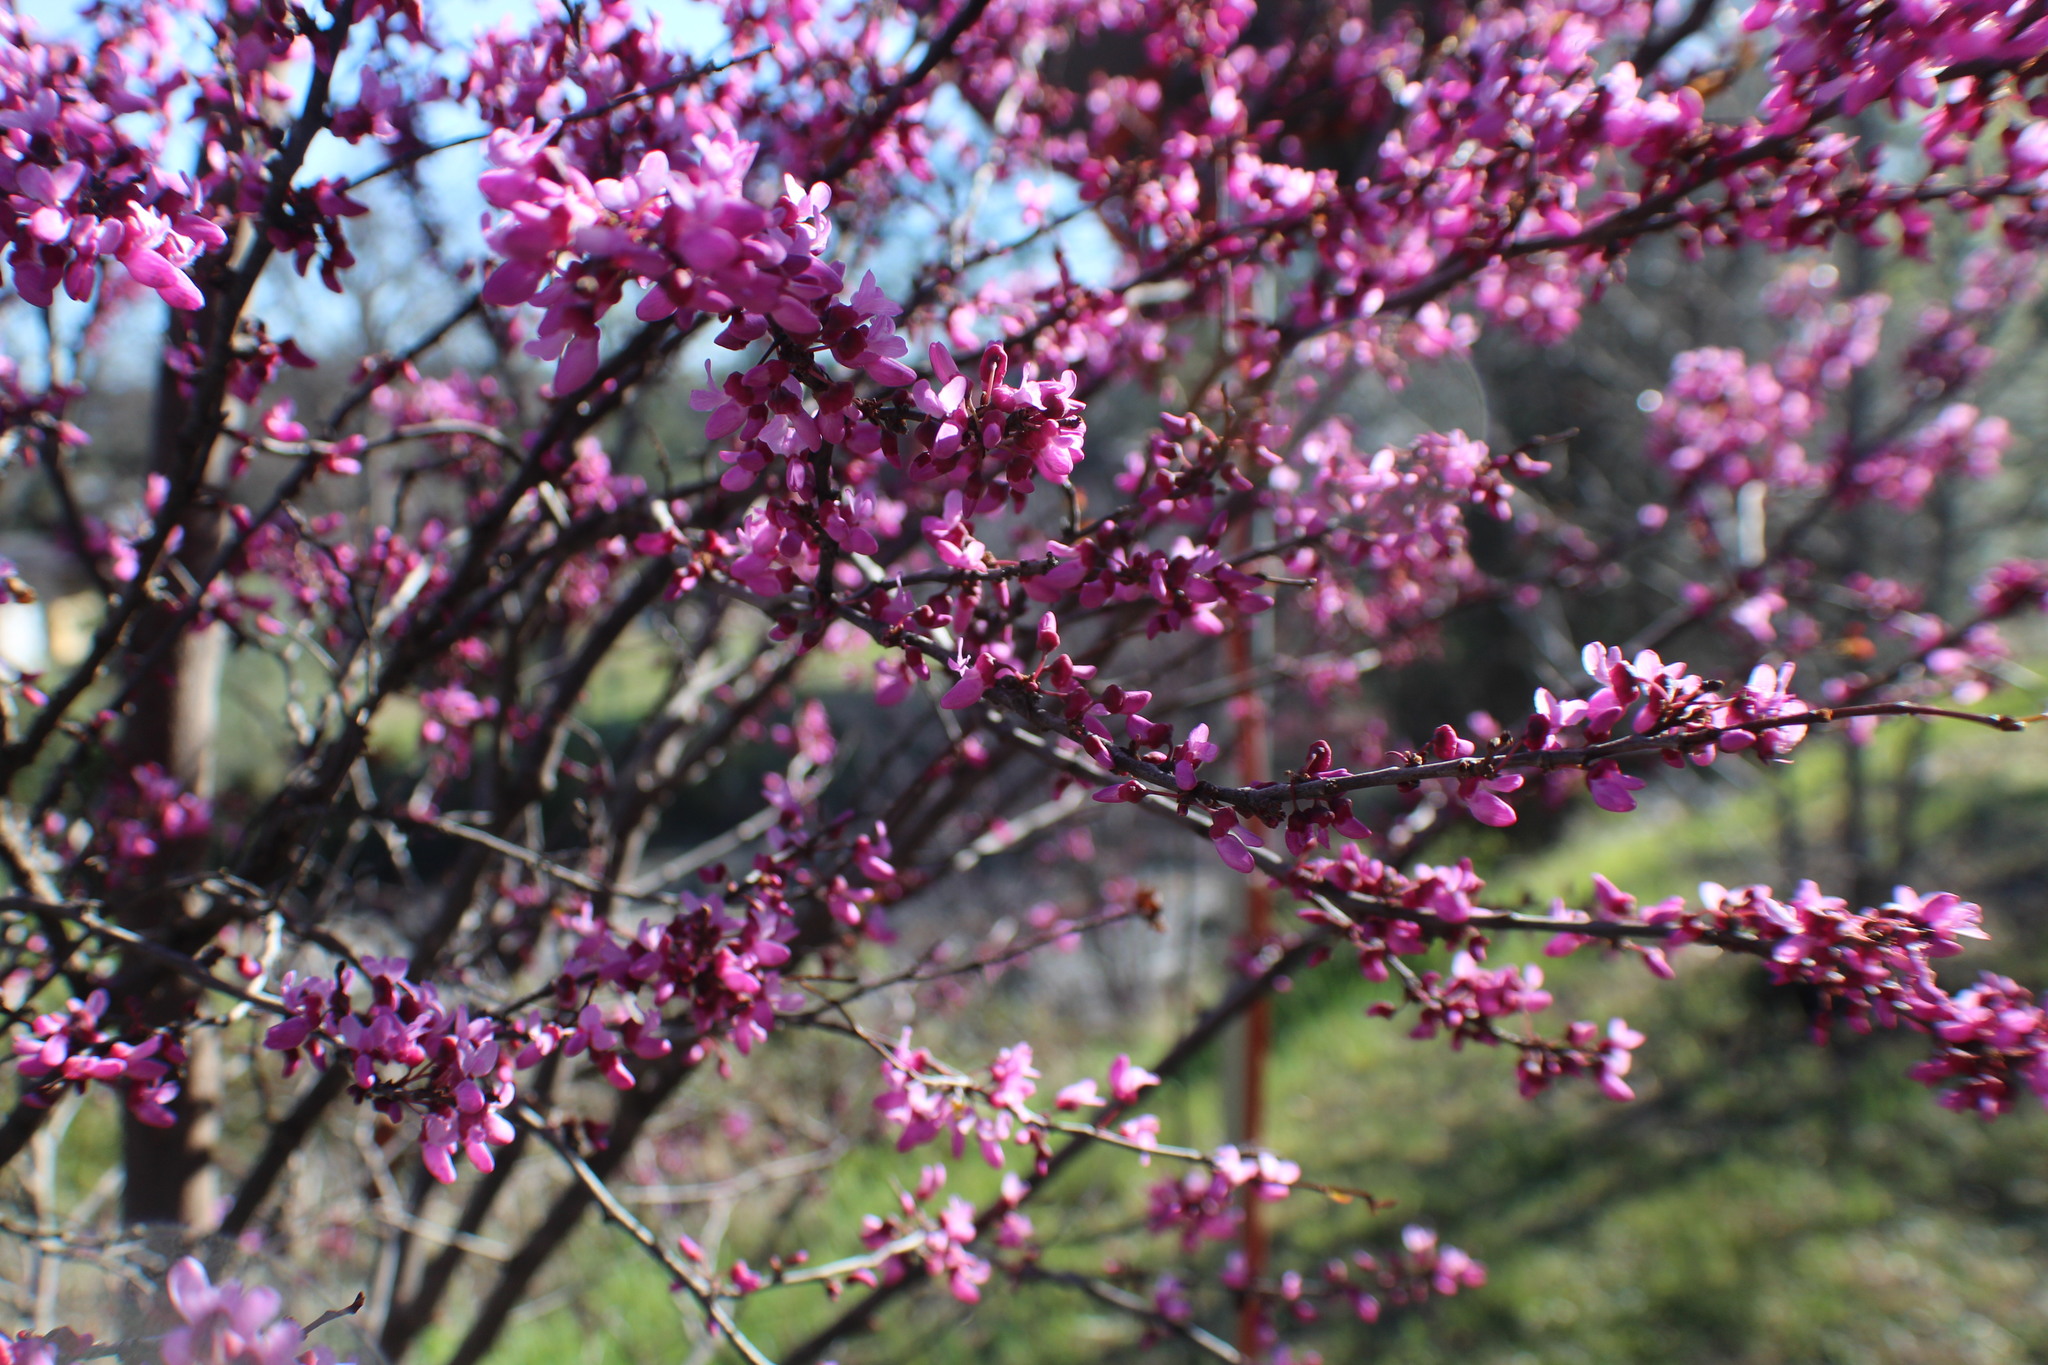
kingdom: Plantae
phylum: Tracheophyta
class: Magnoliopsida
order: Fabales
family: Fabaceae
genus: Cercis
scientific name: Cercis occidentalis
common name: California redbud
